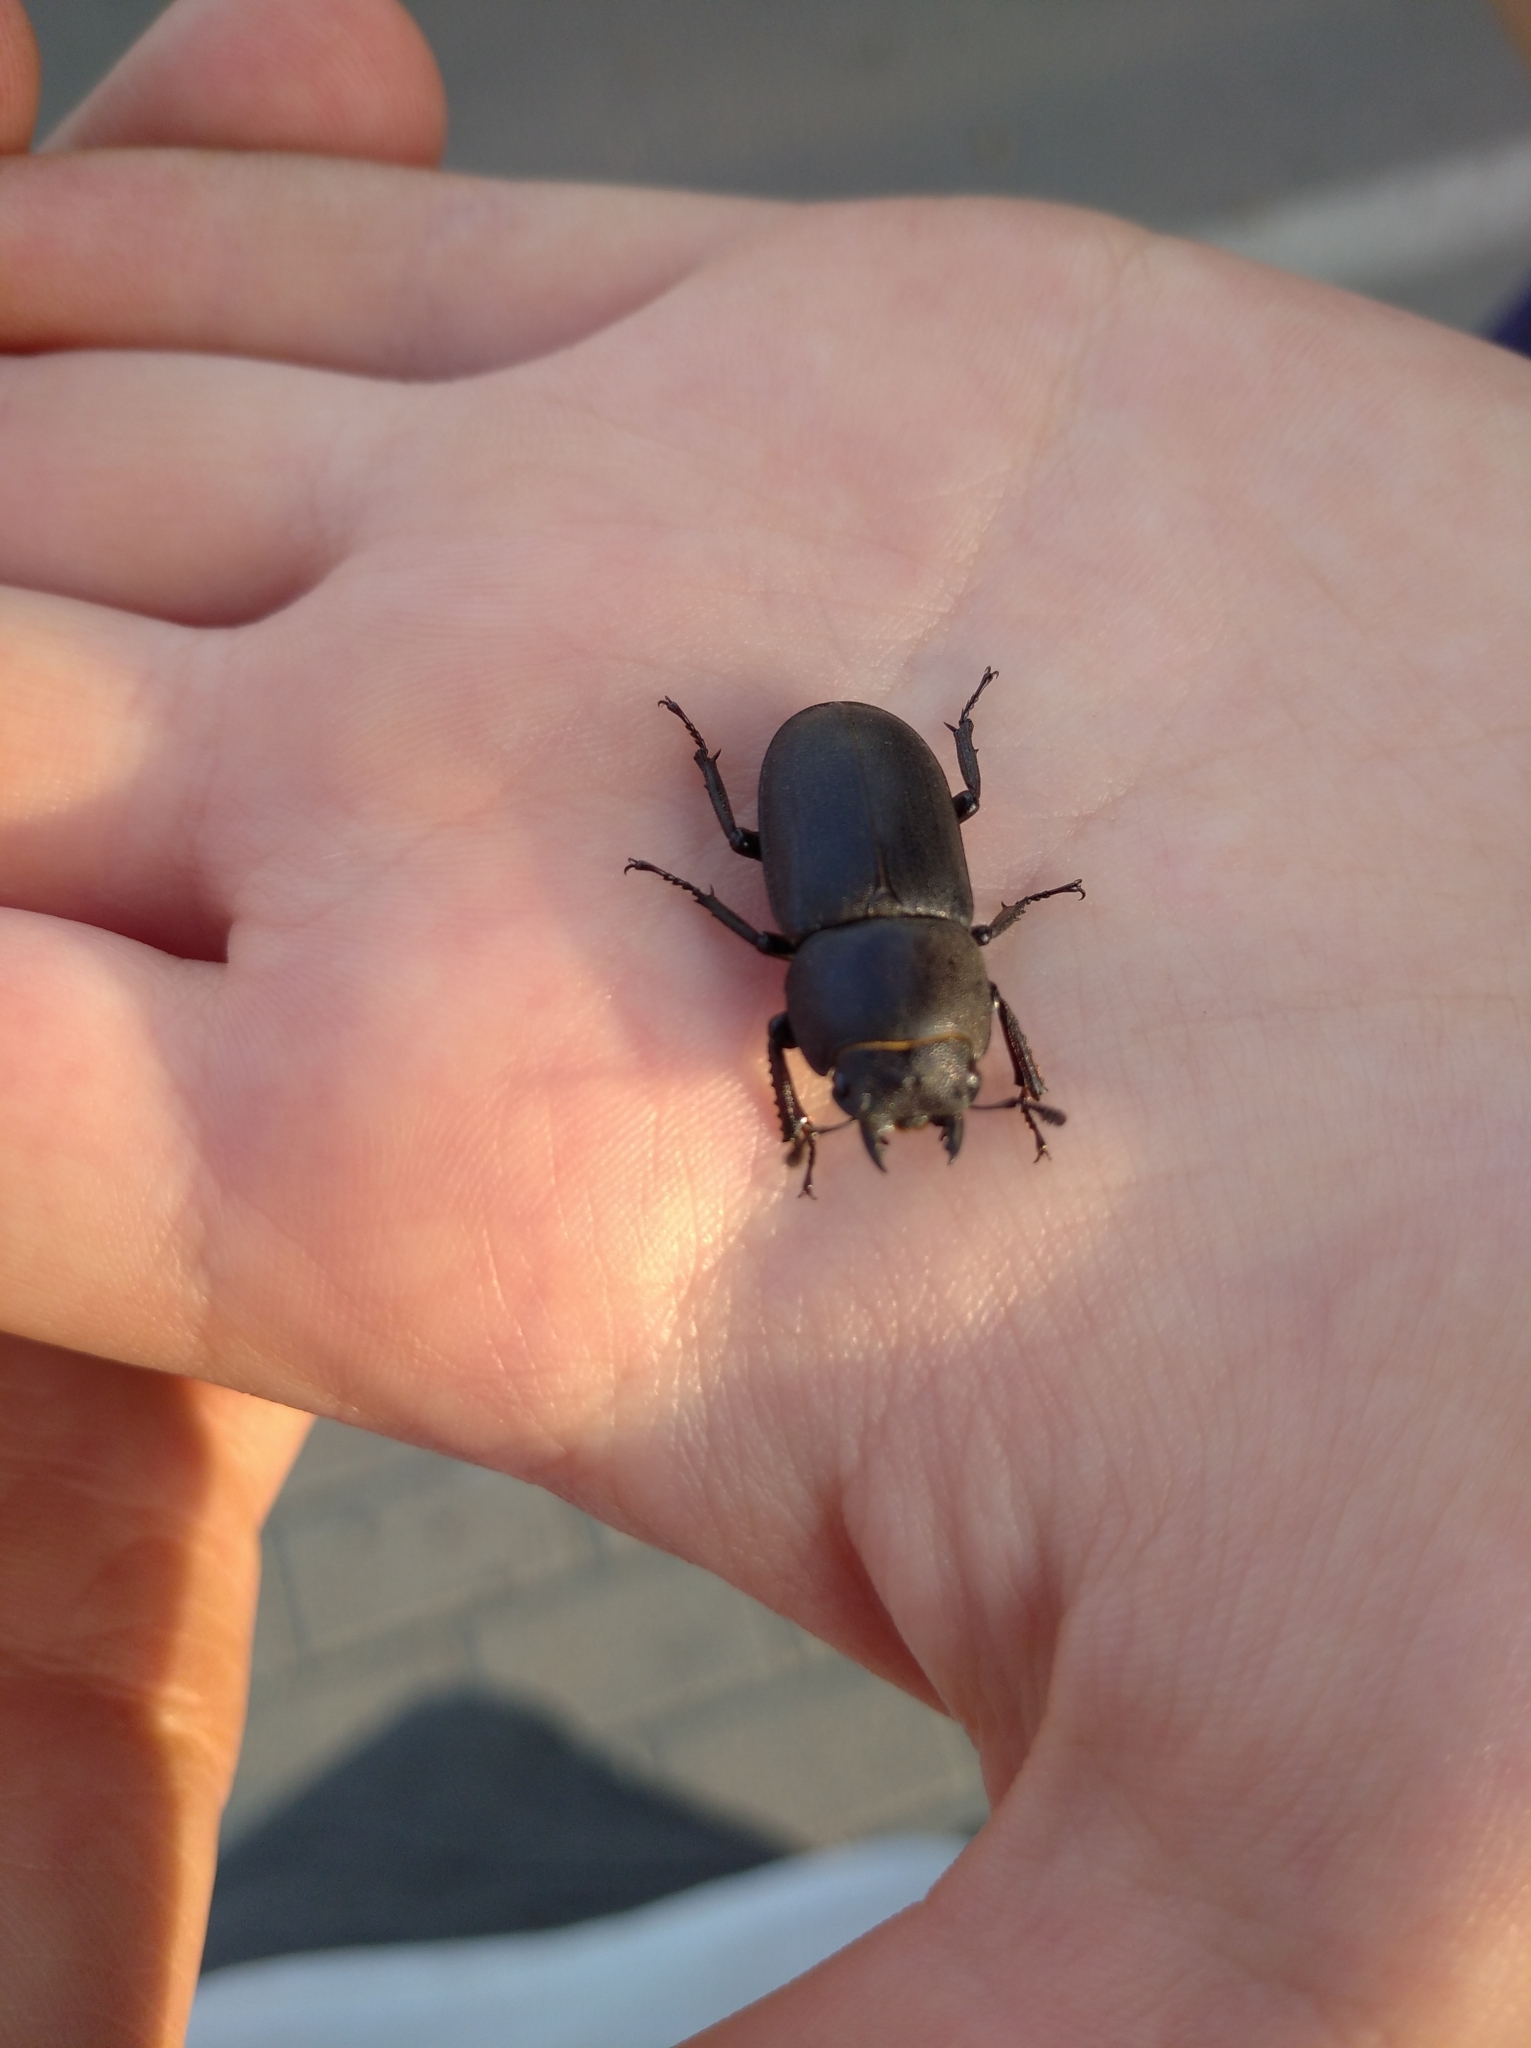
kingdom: Animalia
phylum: Arthropoda
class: Insecta
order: Coleoptera
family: Lucanidae
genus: Dorcus
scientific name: Dorcus parallelipipedus
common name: Lesser stag beetle
